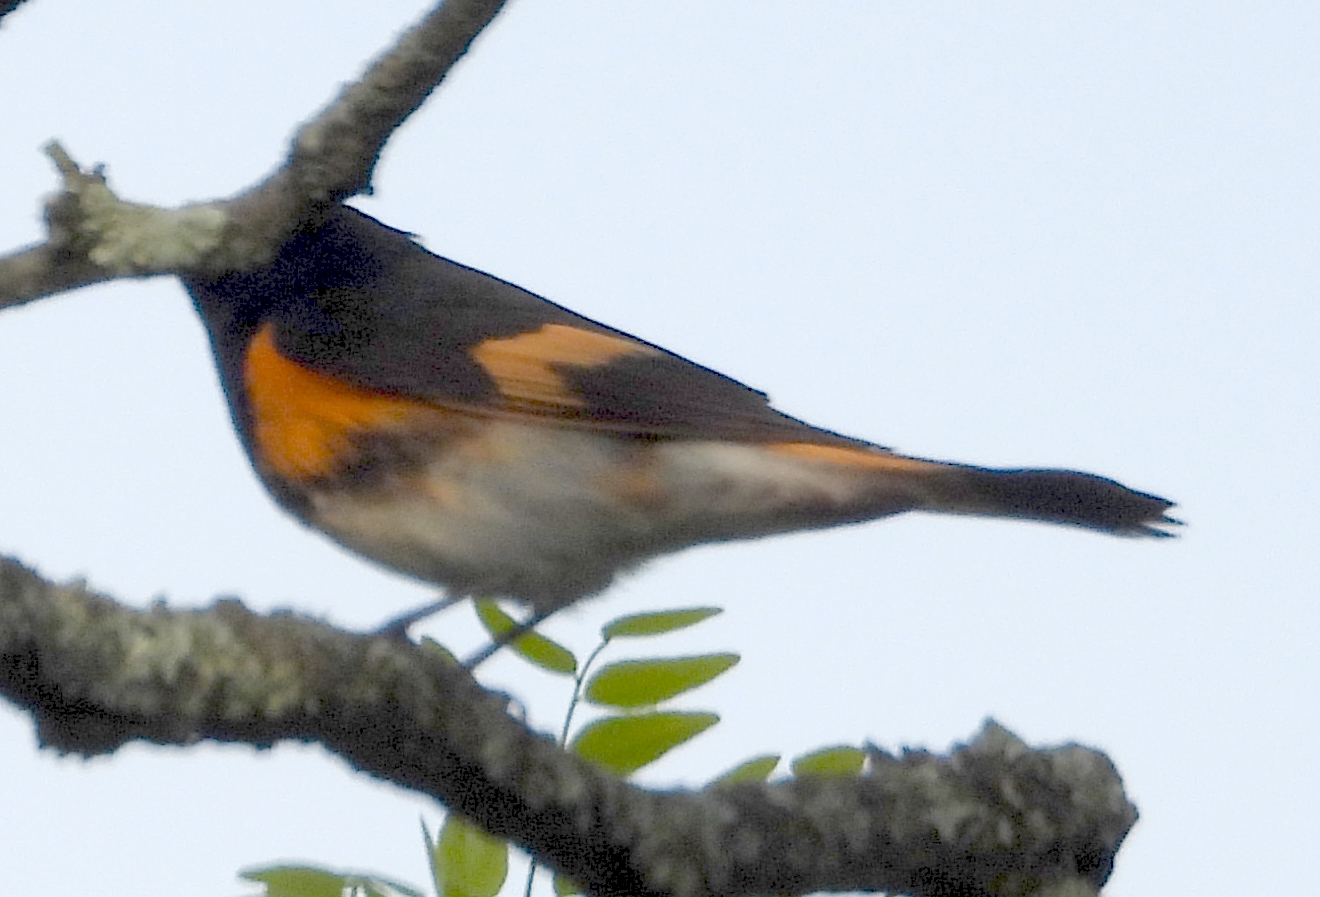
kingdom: Animalia
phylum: Chordata
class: Aves
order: Passeriformes
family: Parulidae
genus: Setophaga
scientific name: Setophaga ruticilla
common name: American redstart
